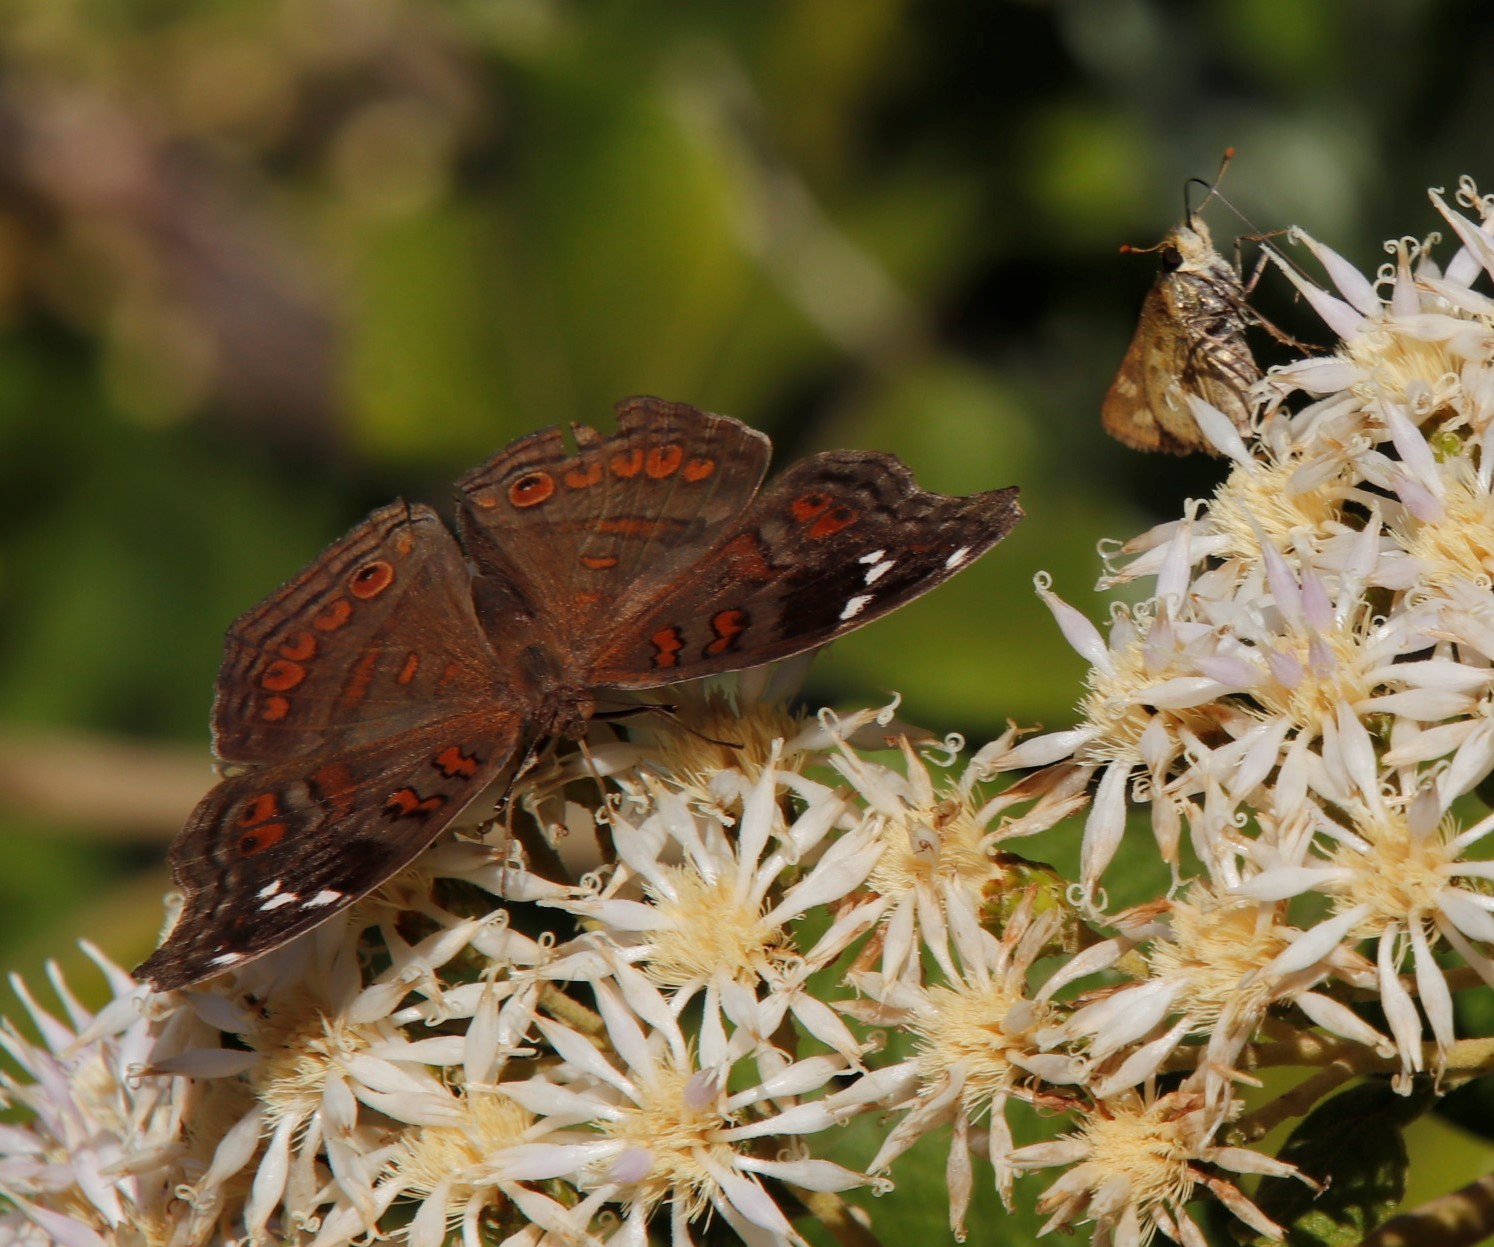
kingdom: Animalia
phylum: Arthropoda
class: Insecta
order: Hymenoptera
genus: Afrogenes
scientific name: Afrogenes
